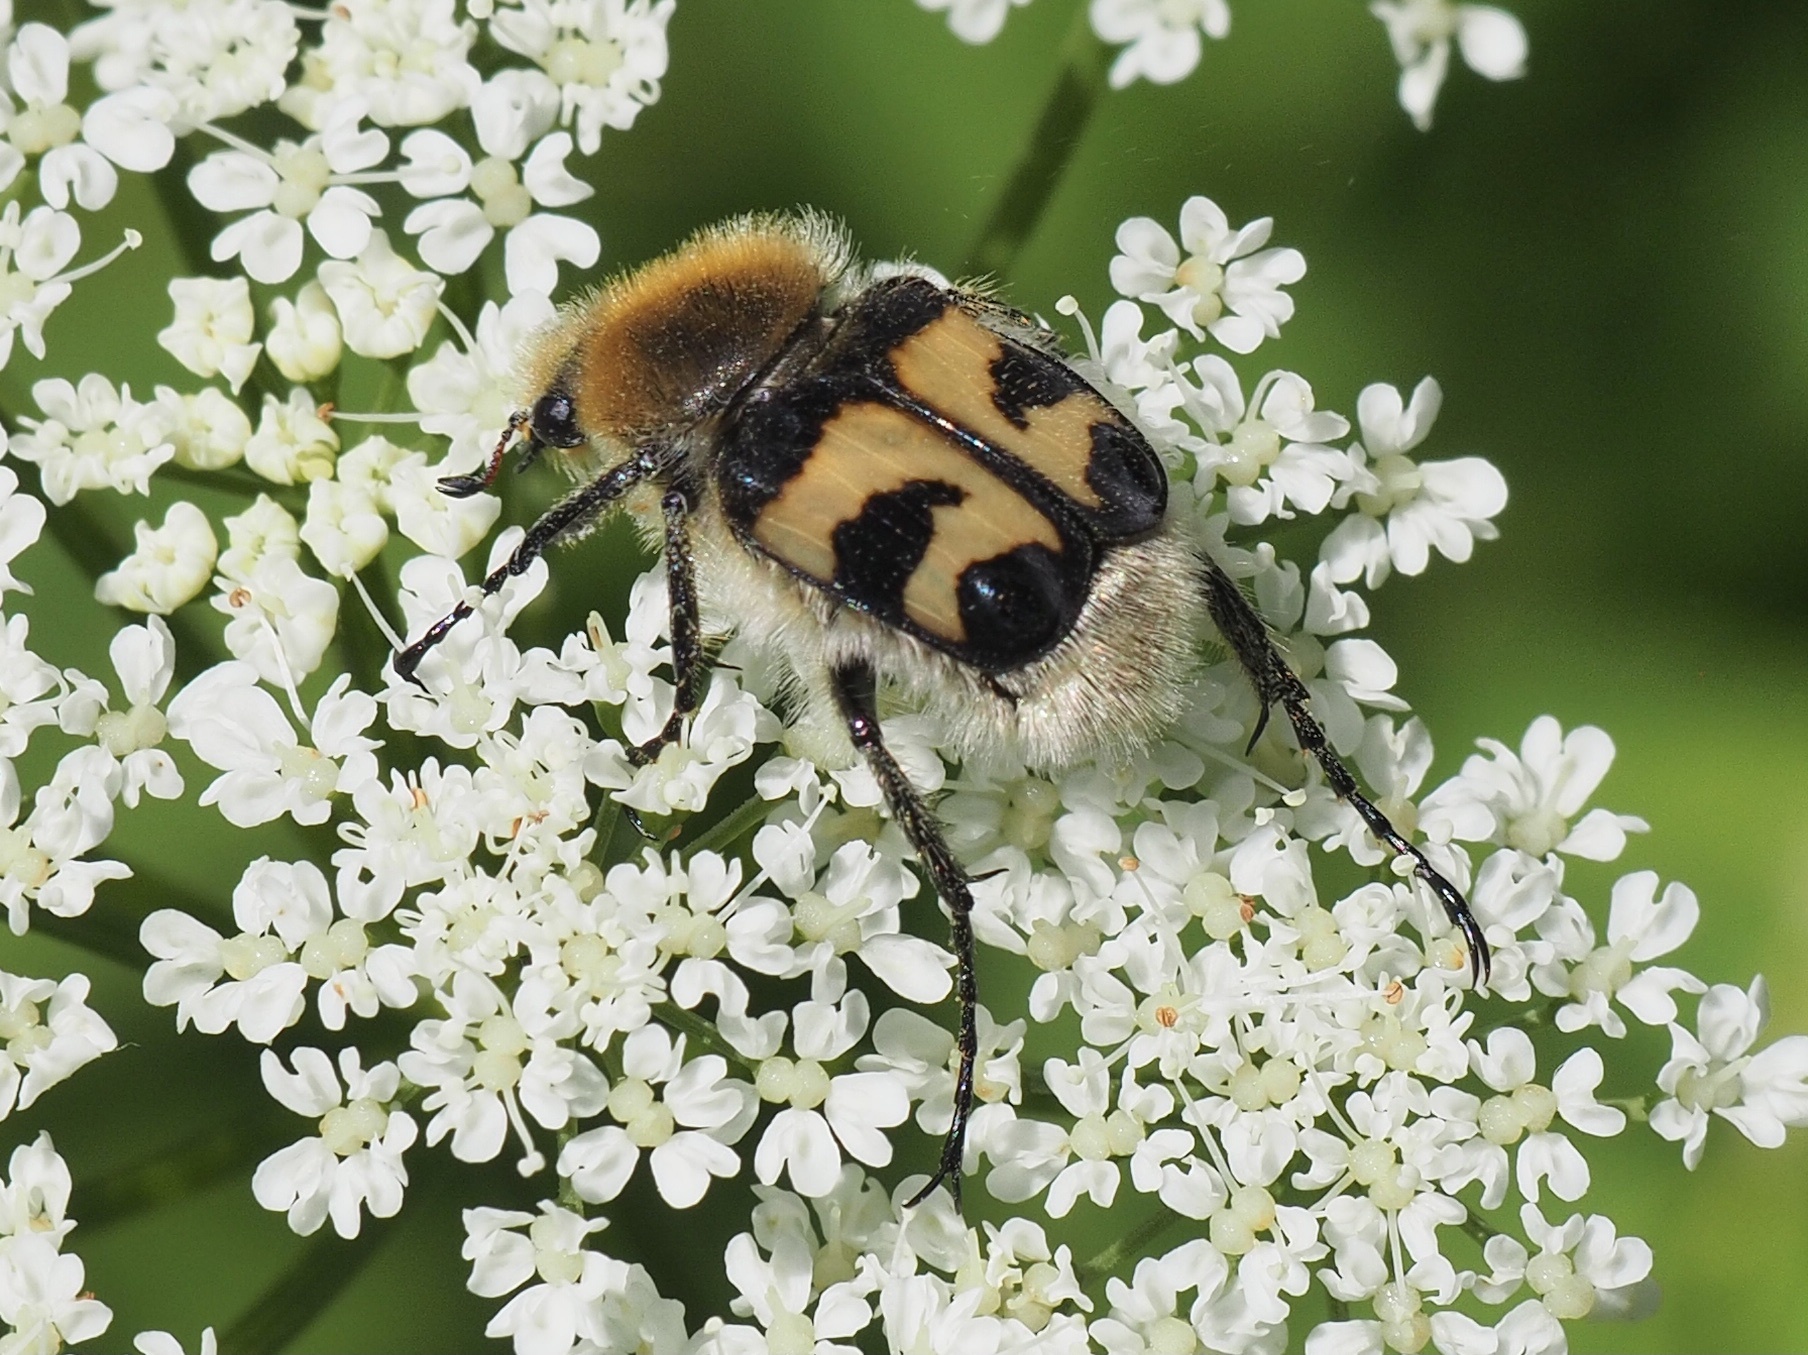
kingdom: Animalia
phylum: Arthropoda
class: Insecta
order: Coleoptera
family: Scarabaeidae
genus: Trichius
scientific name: Trichius fasciatus
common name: Bee beetle
